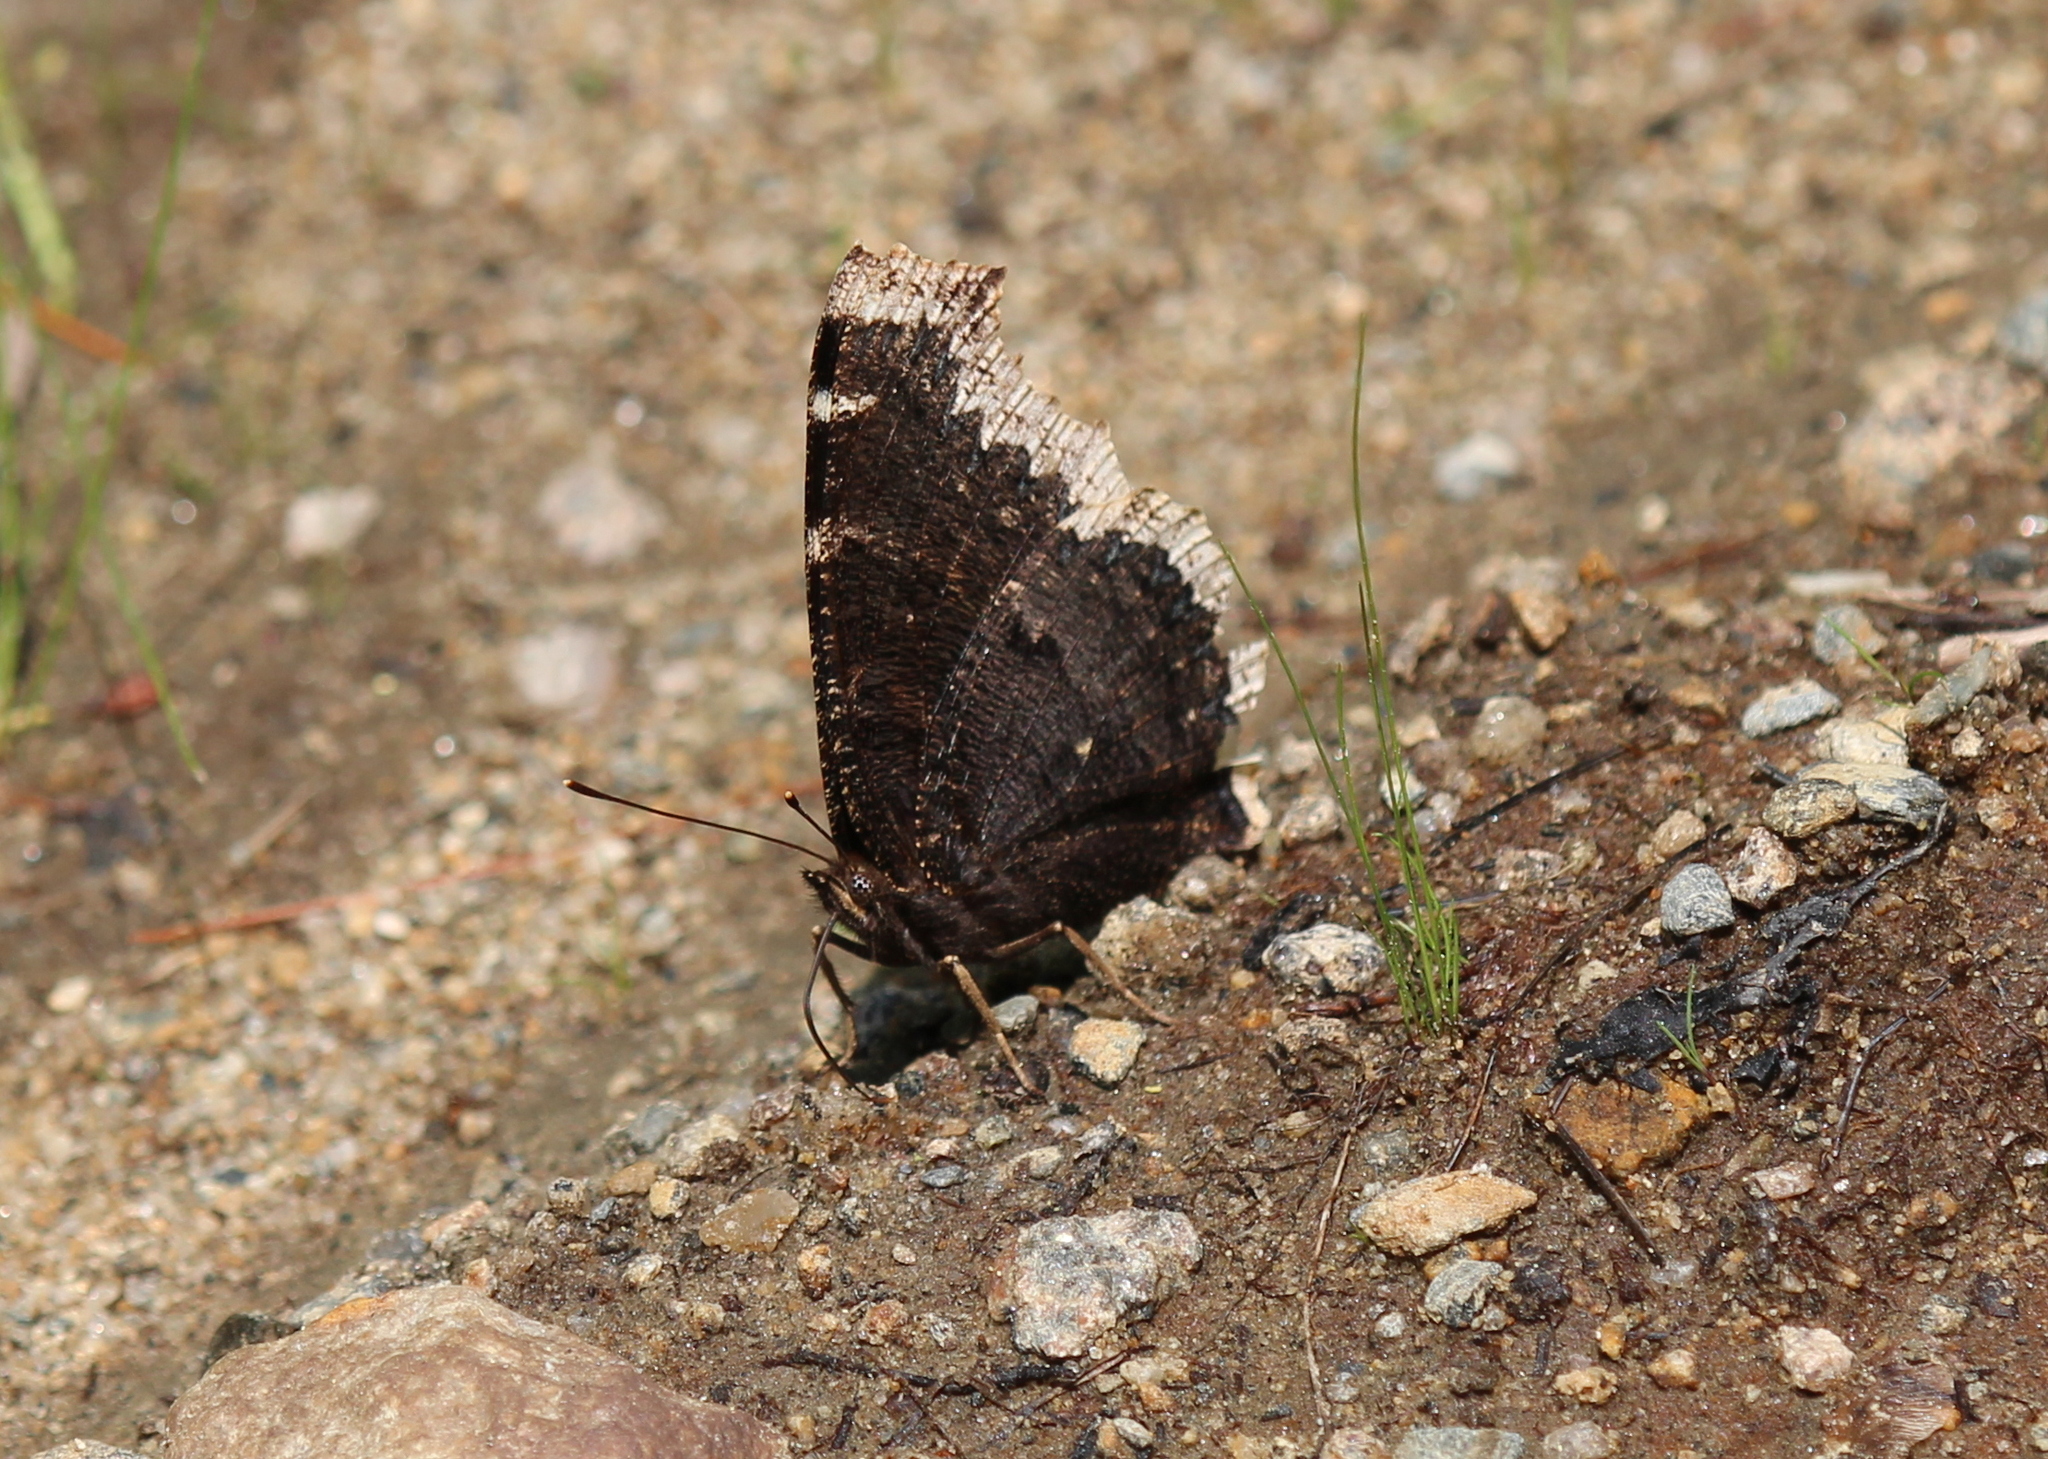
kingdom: Animalia
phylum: Arthropoda
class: Insecta
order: Lepidoptera
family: Nymphalidae
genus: Nymphalis
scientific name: Nymphalis antiopa
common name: Camberwell beauty
